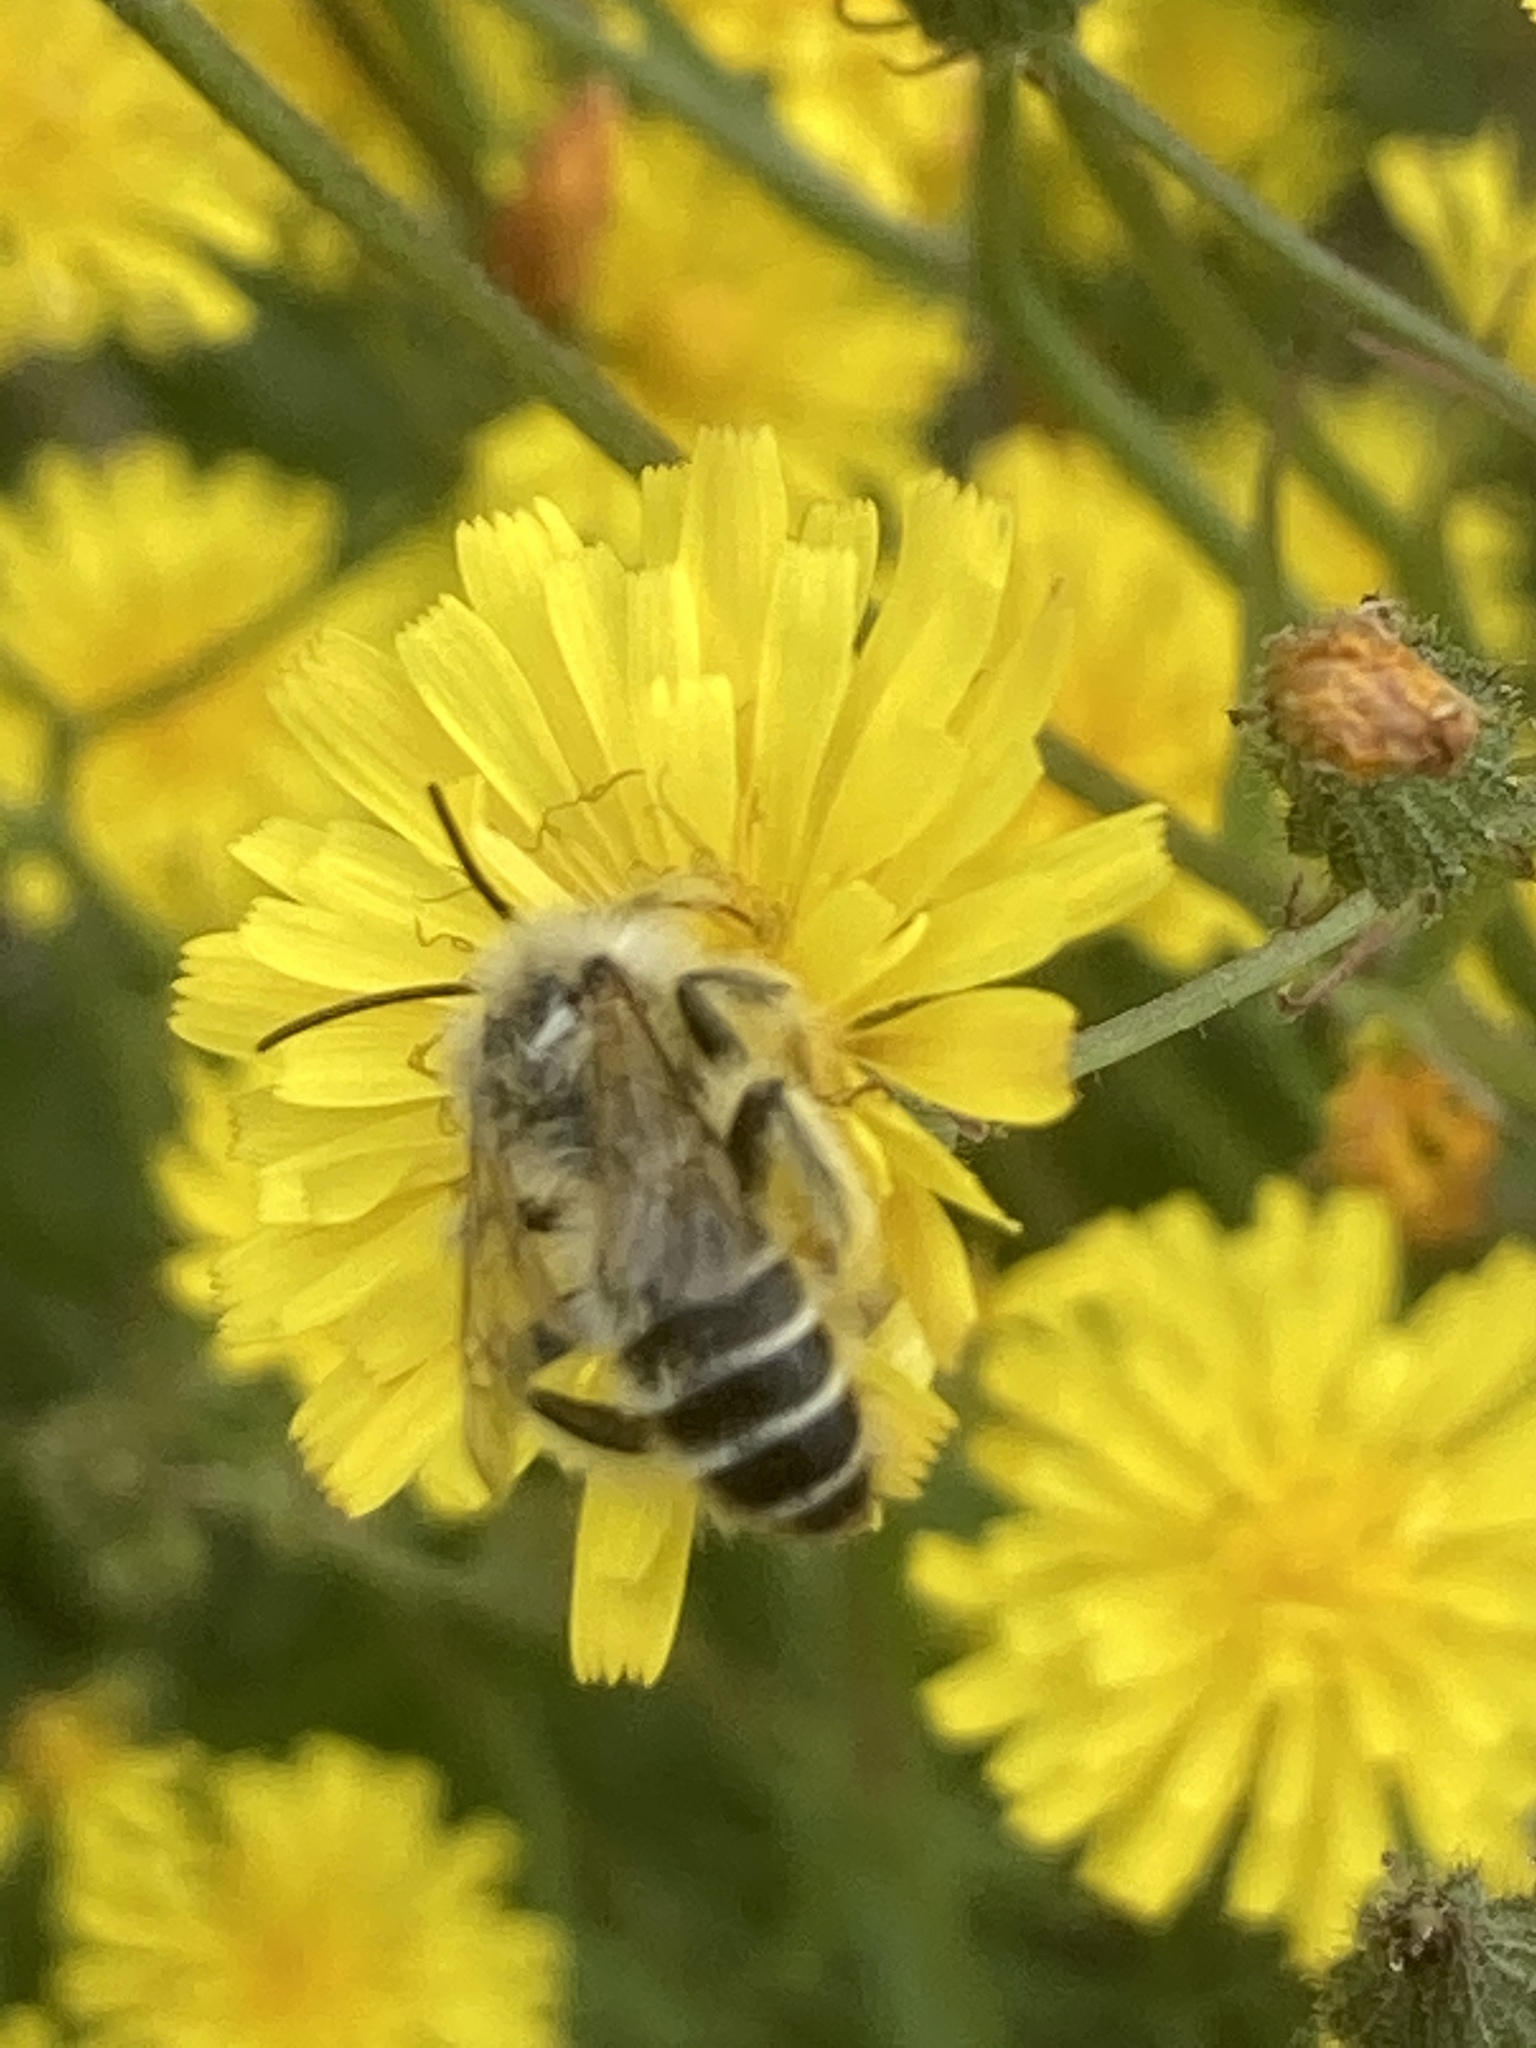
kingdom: Animalia
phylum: Arthropoda
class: Insecta
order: Hymenoptera
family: Melittidae
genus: Dasypoda
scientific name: Dasypoda hirtipes
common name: Pantaloon bee
